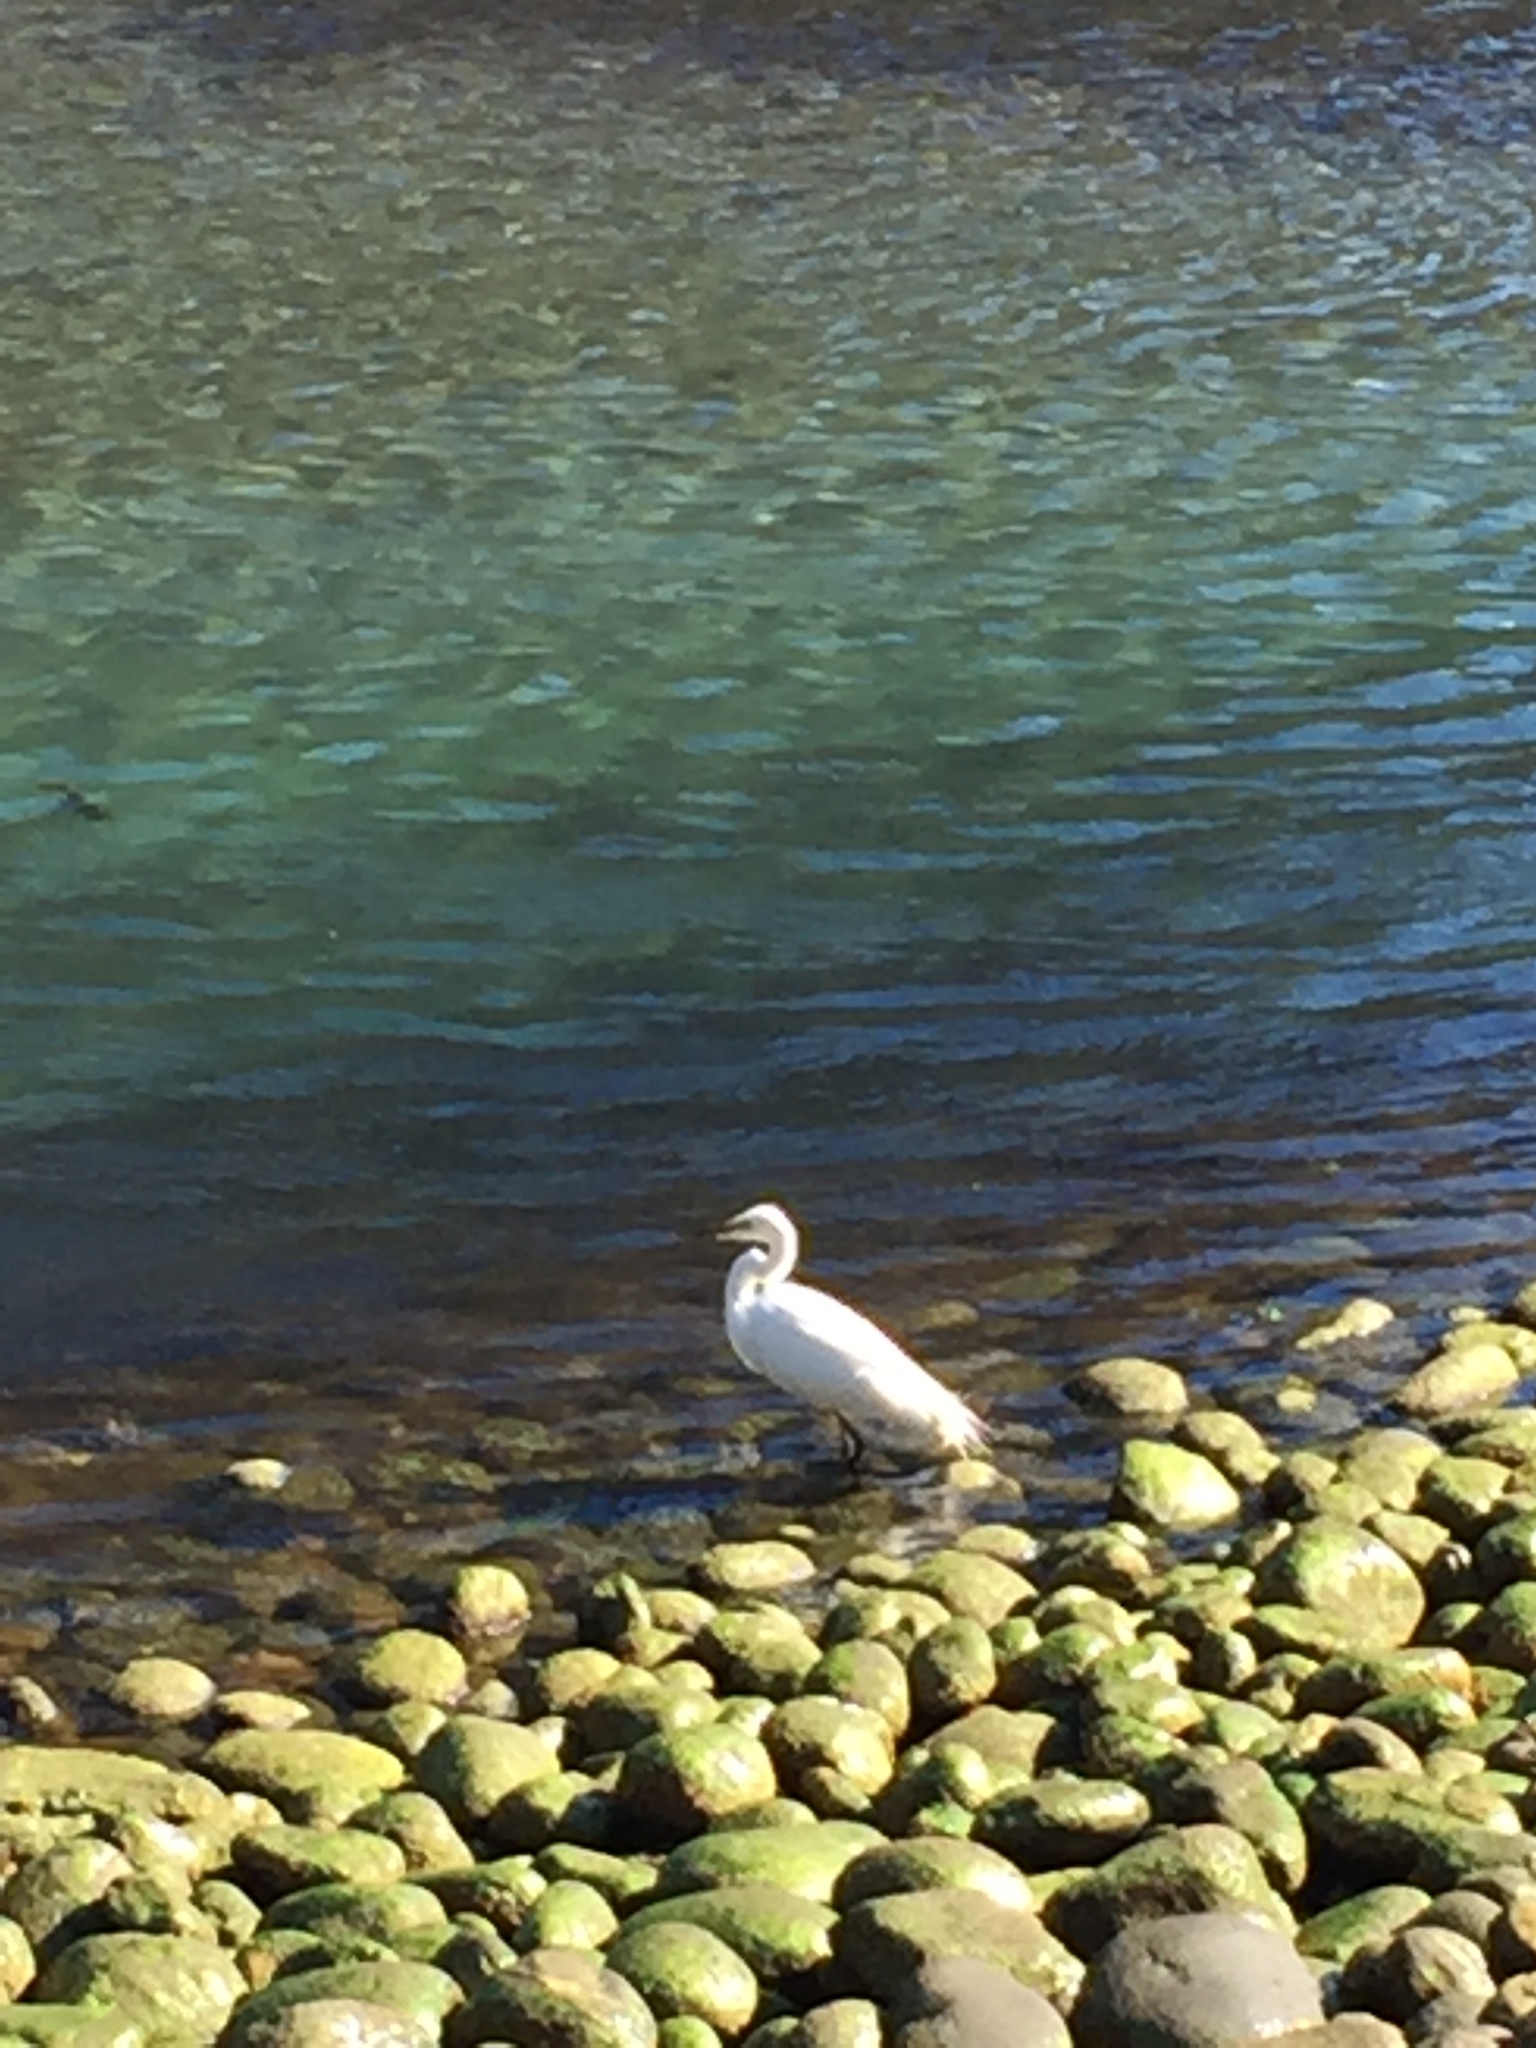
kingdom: Animalia
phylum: Chordata
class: Aves
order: Pelecaniformes
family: Ardeidae
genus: Ardea
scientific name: Ardea modesta
